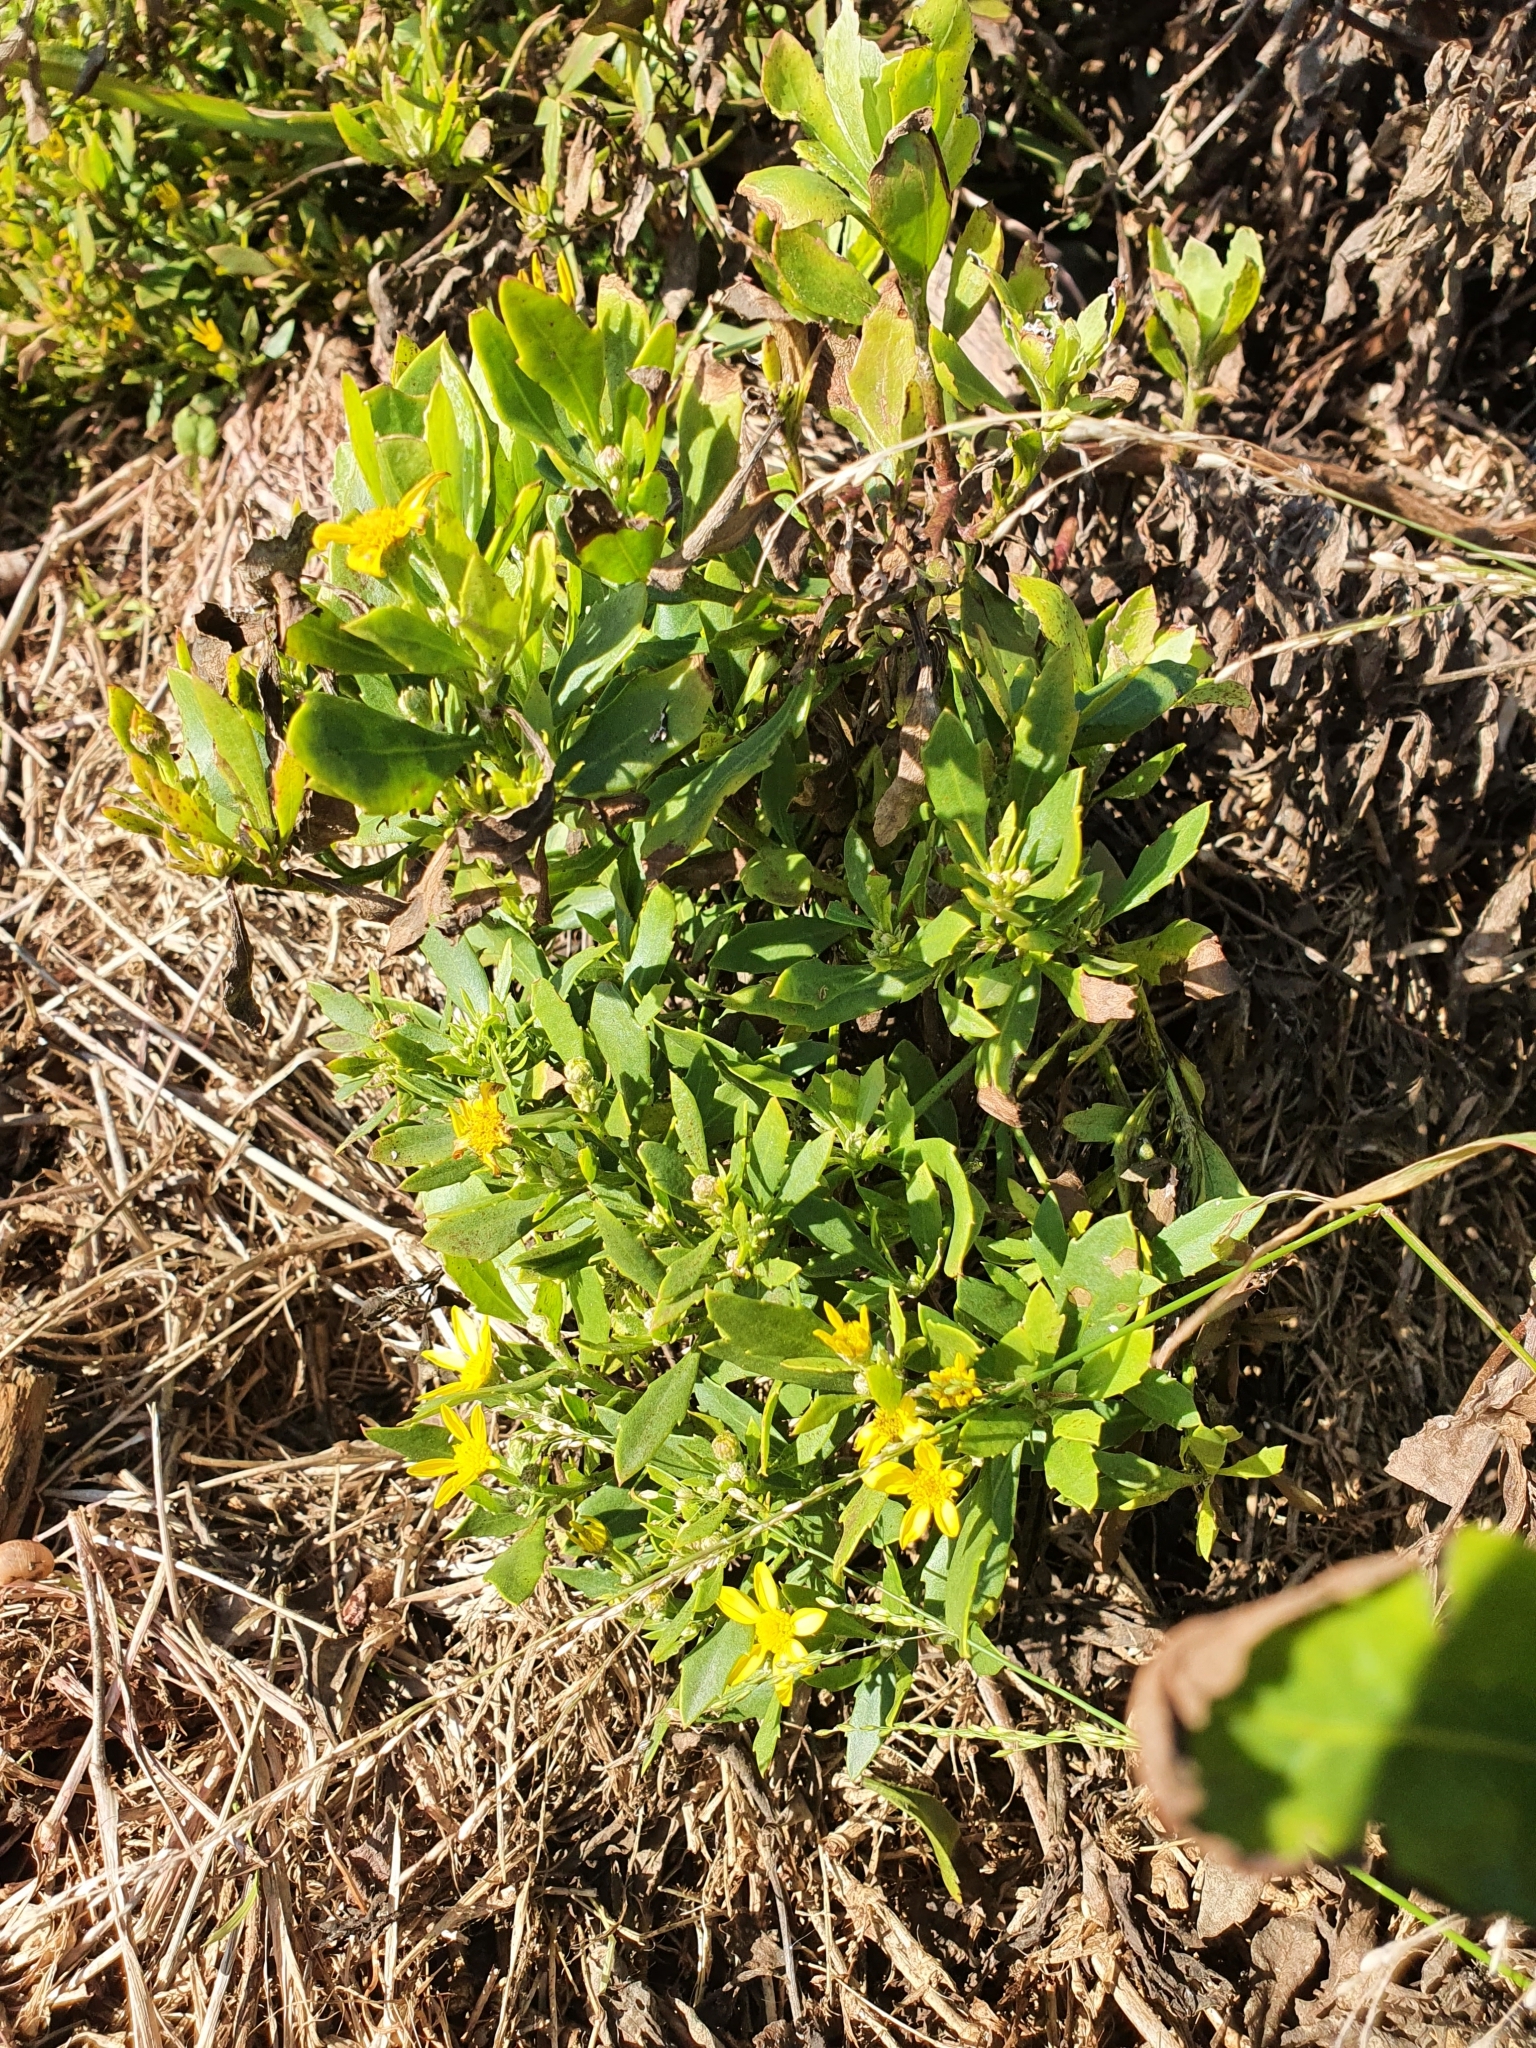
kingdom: Plantae
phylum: Tracheophyta
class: Magnoliopsida
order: Asterales
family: Asteraceae
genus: Osteospermum
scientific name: Osteospermum moniliferum
